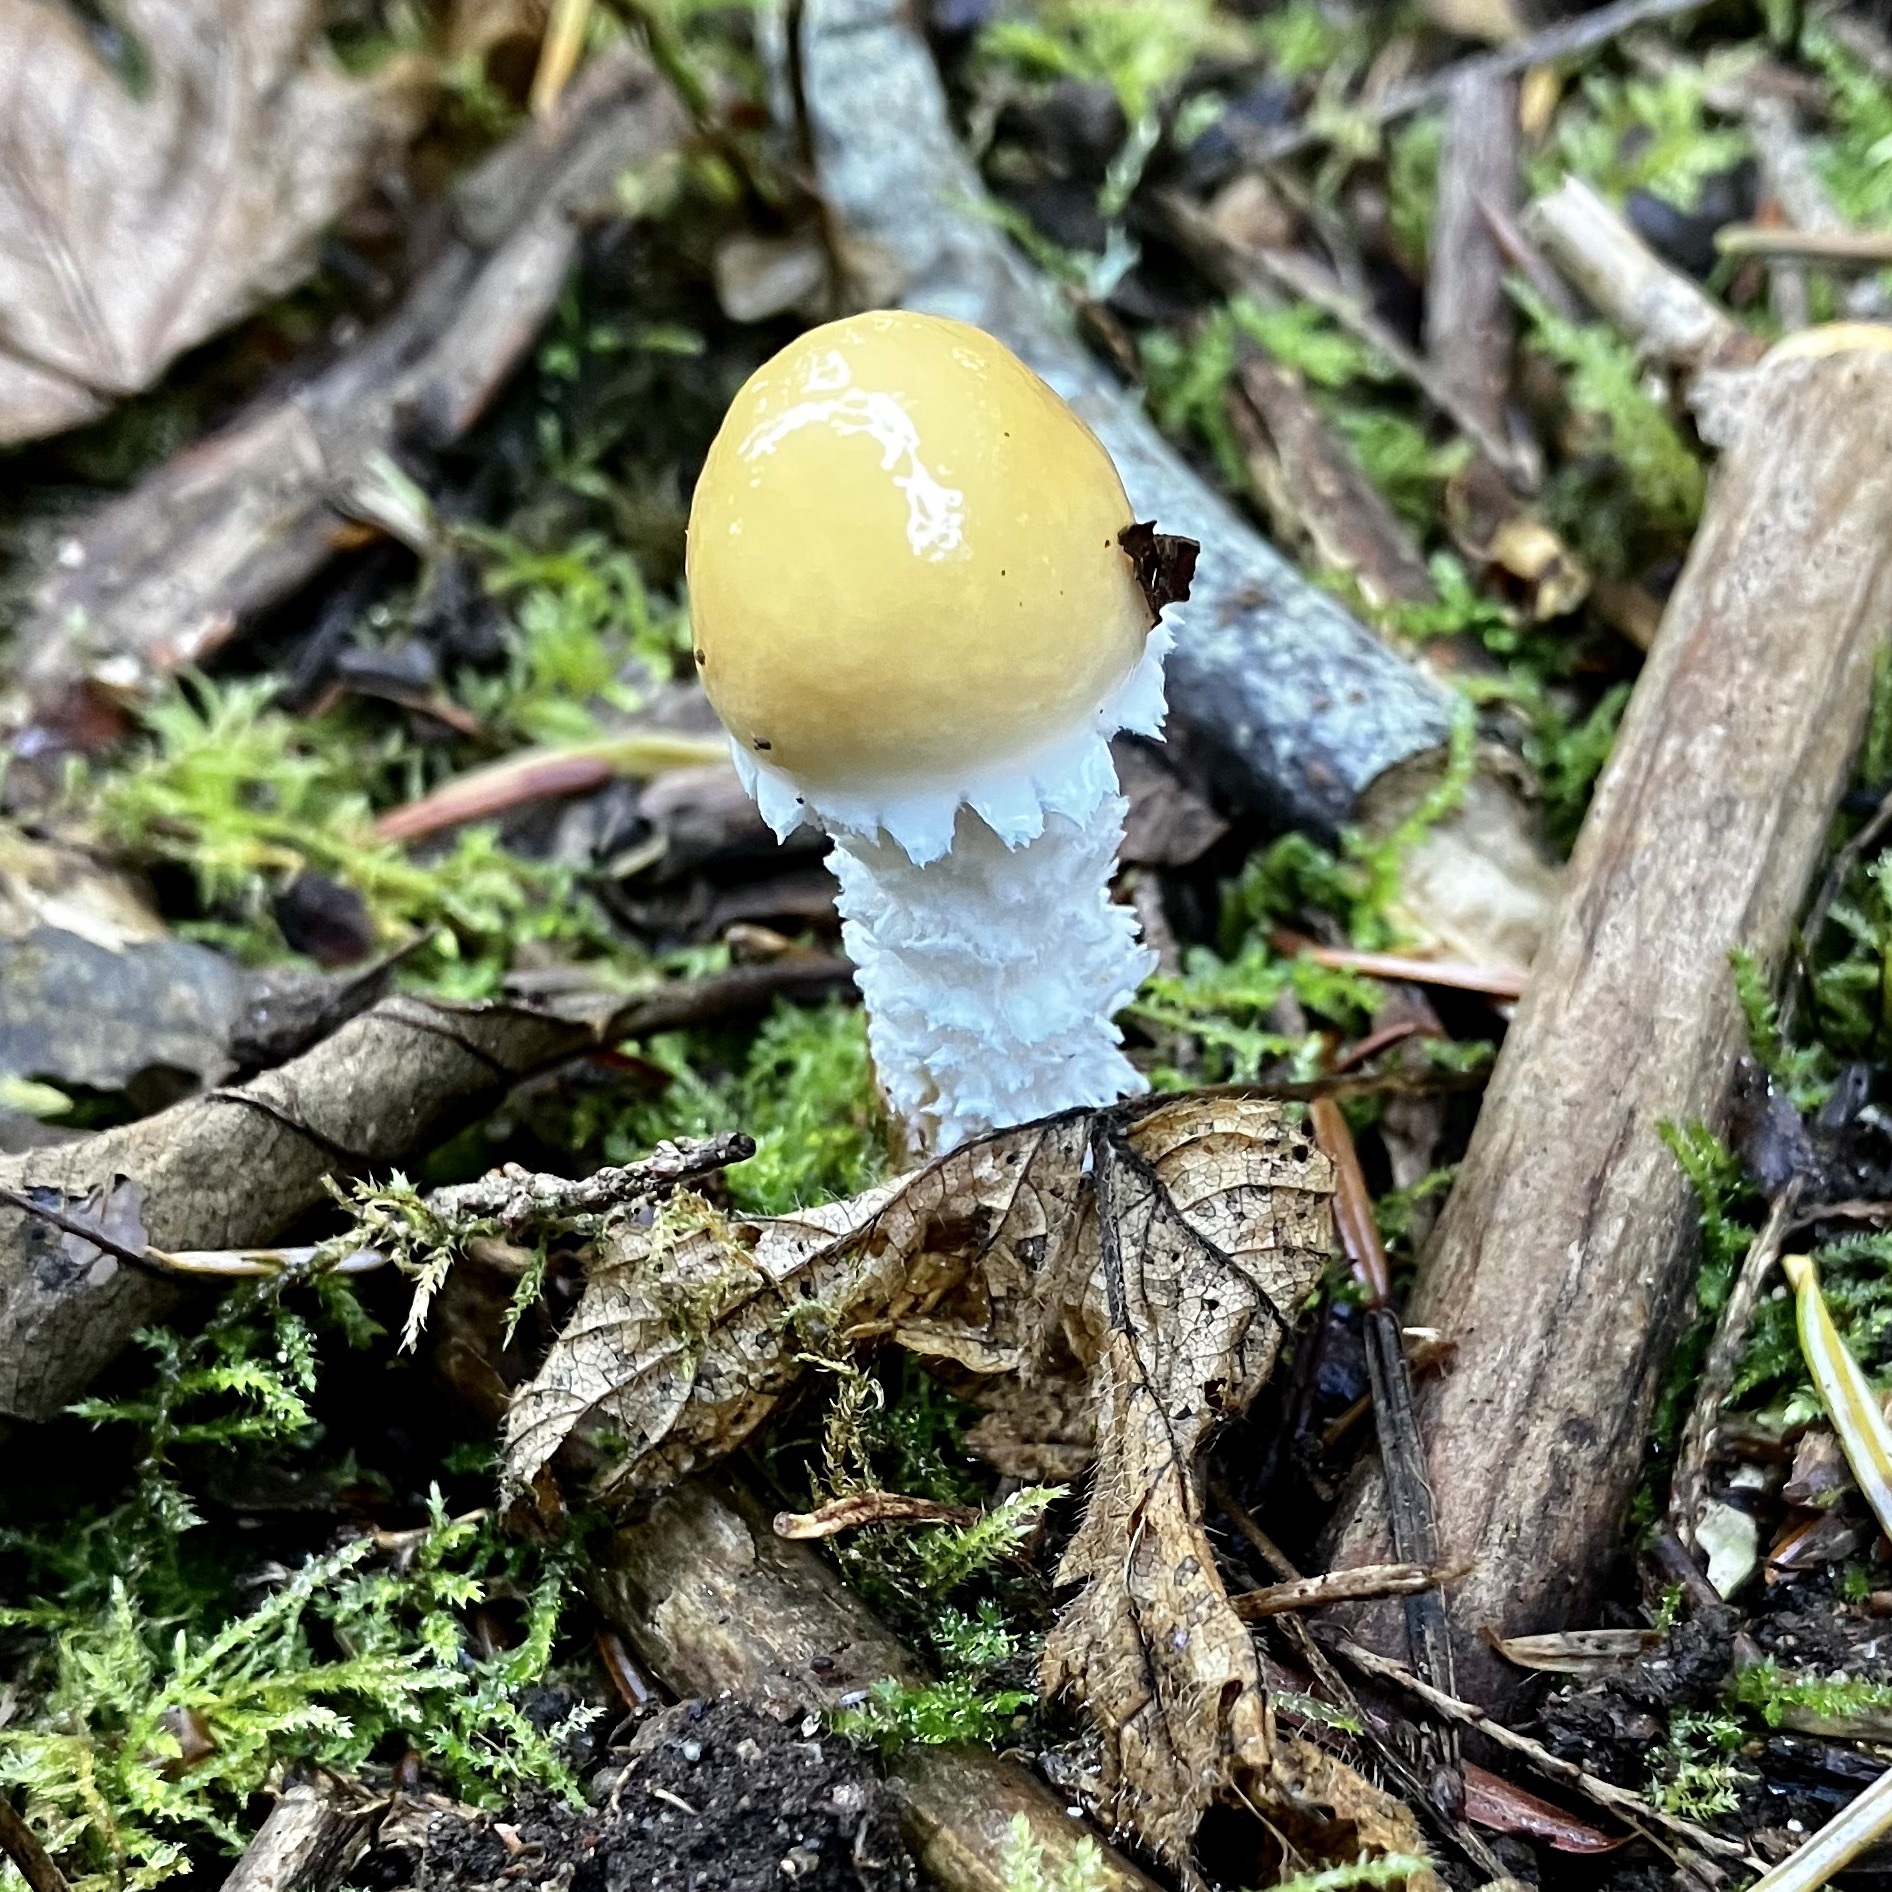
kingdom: Fungi
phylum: Basidiomycota
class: Agaricomycetes
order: Agaricales
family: Strophariaceae
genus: Stropharia
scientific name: Stropharia ambigua
